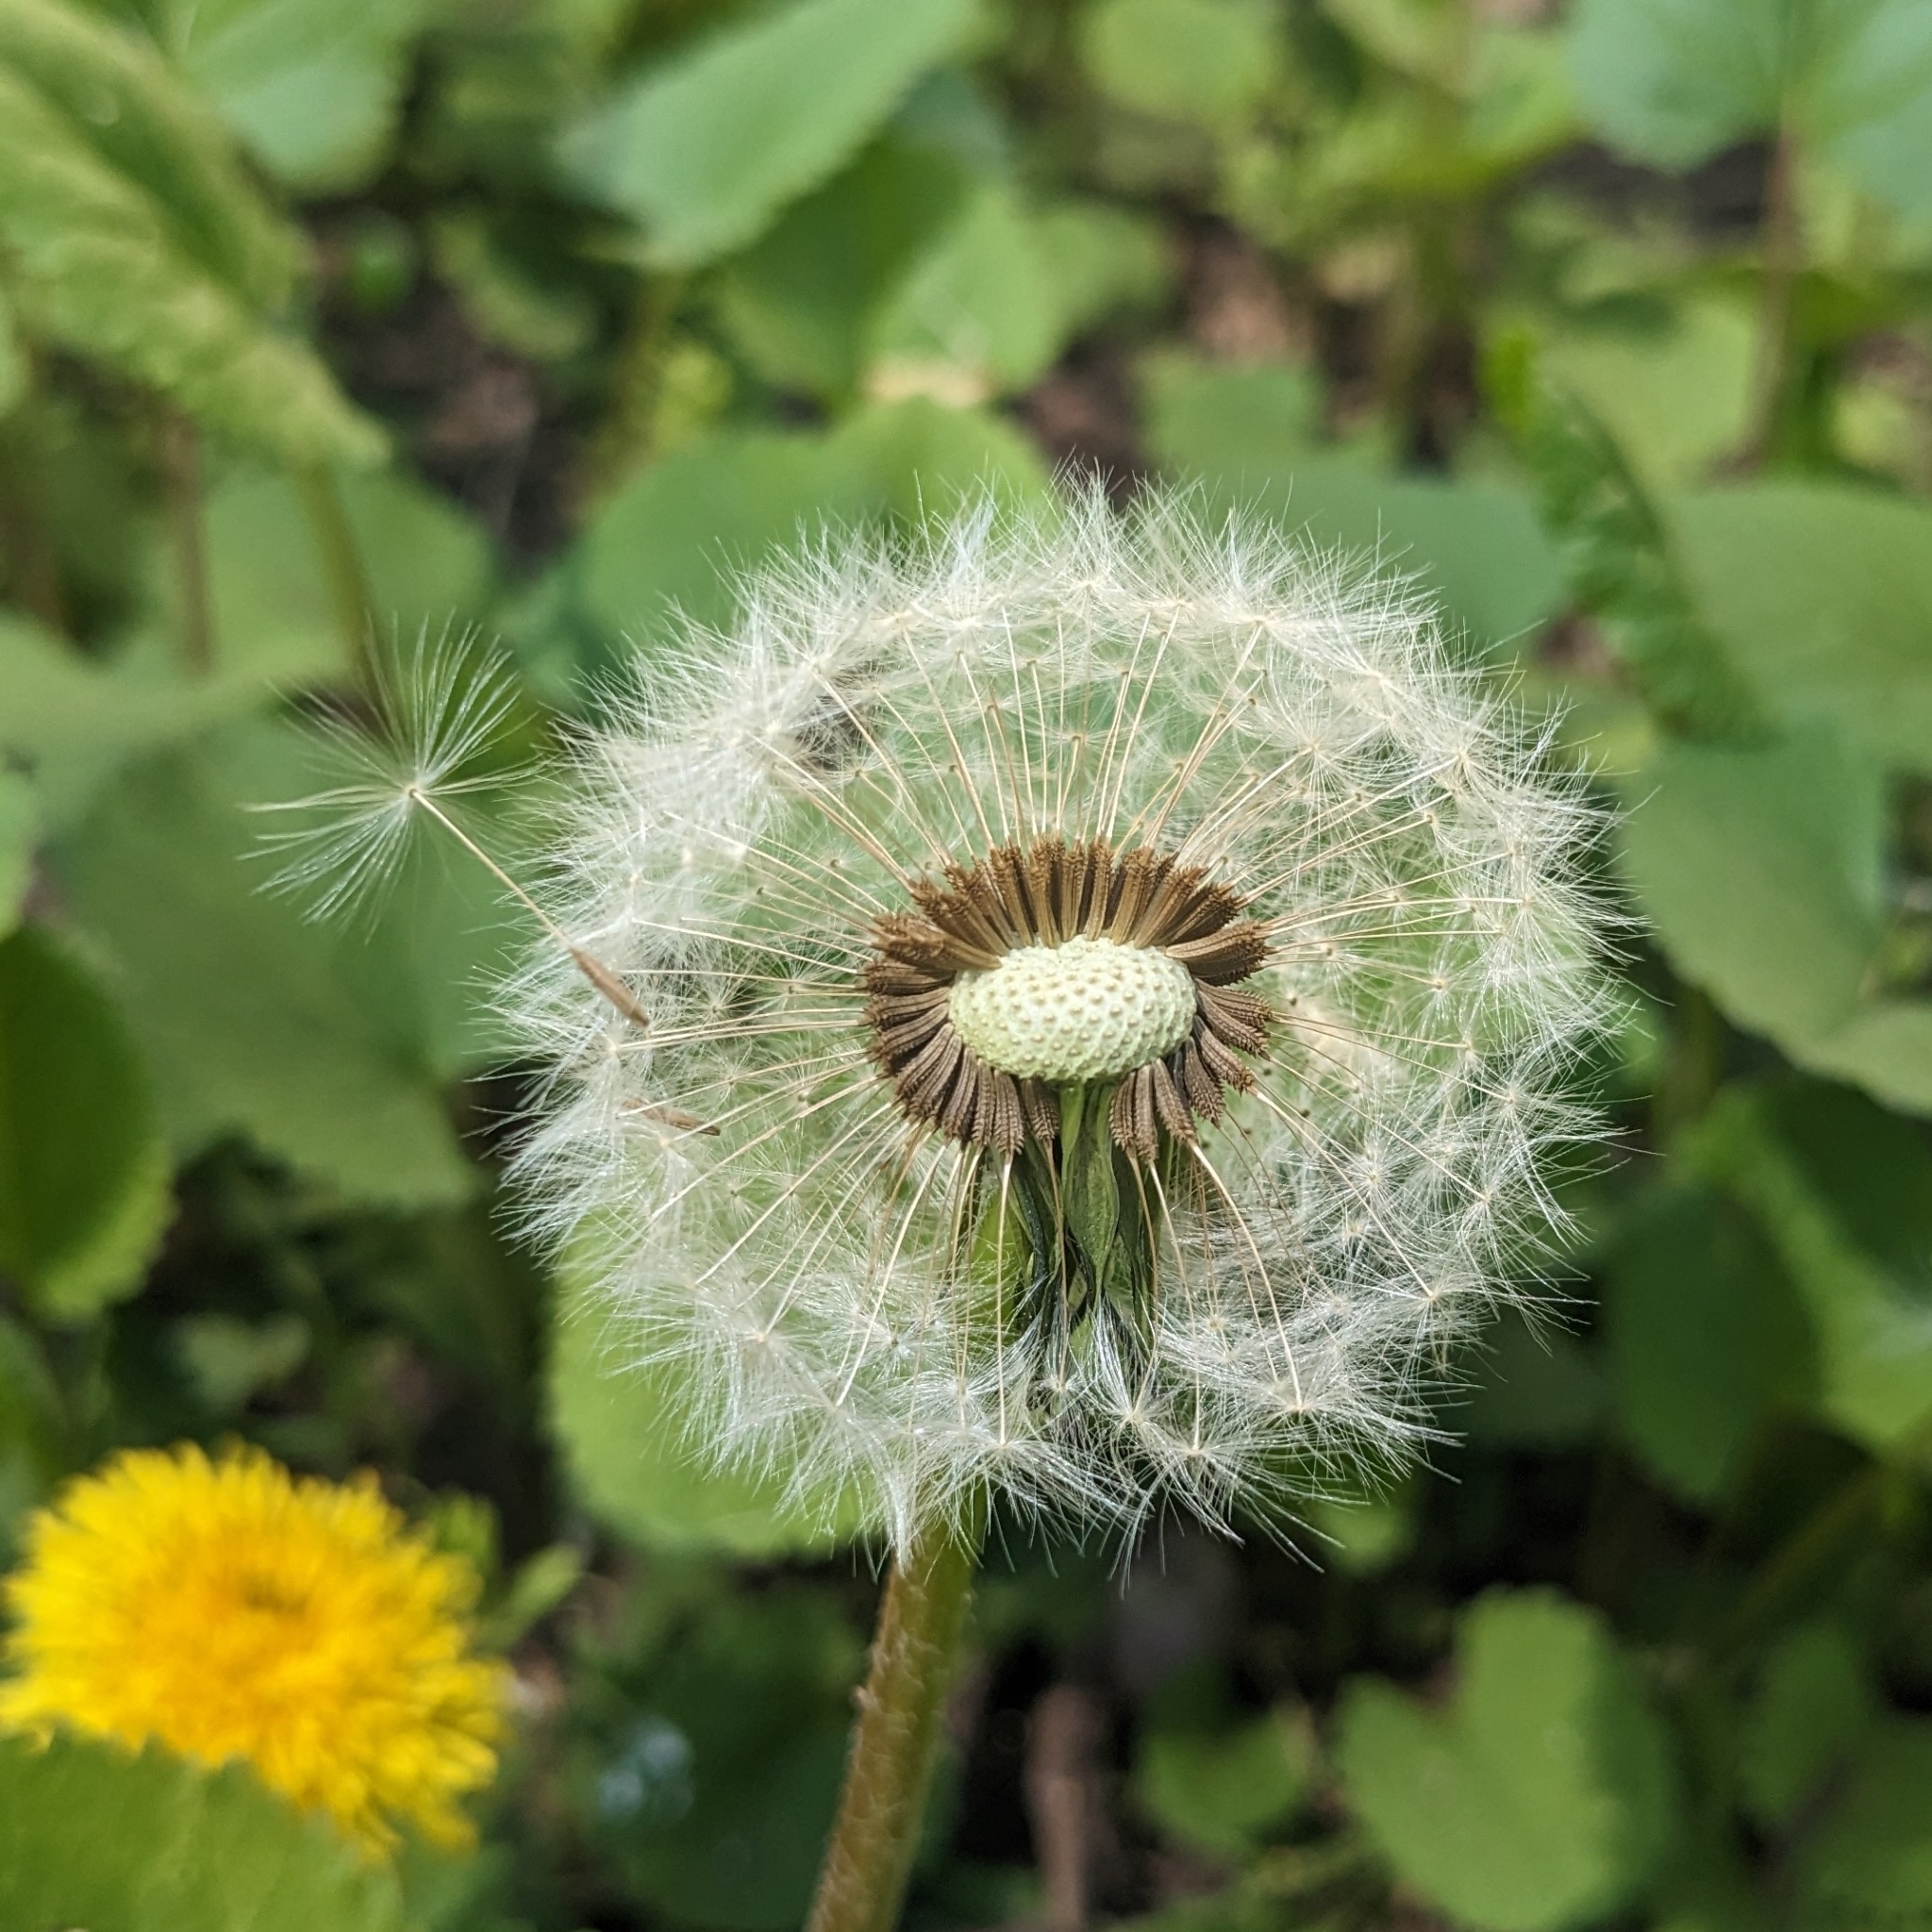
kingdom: Plantae
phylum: Tracheophyta
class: Magnoliopsida
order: Asterales
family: Asteraceae
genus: Taraxacum
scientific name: Taraxacum officinale
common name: Common dandelion
